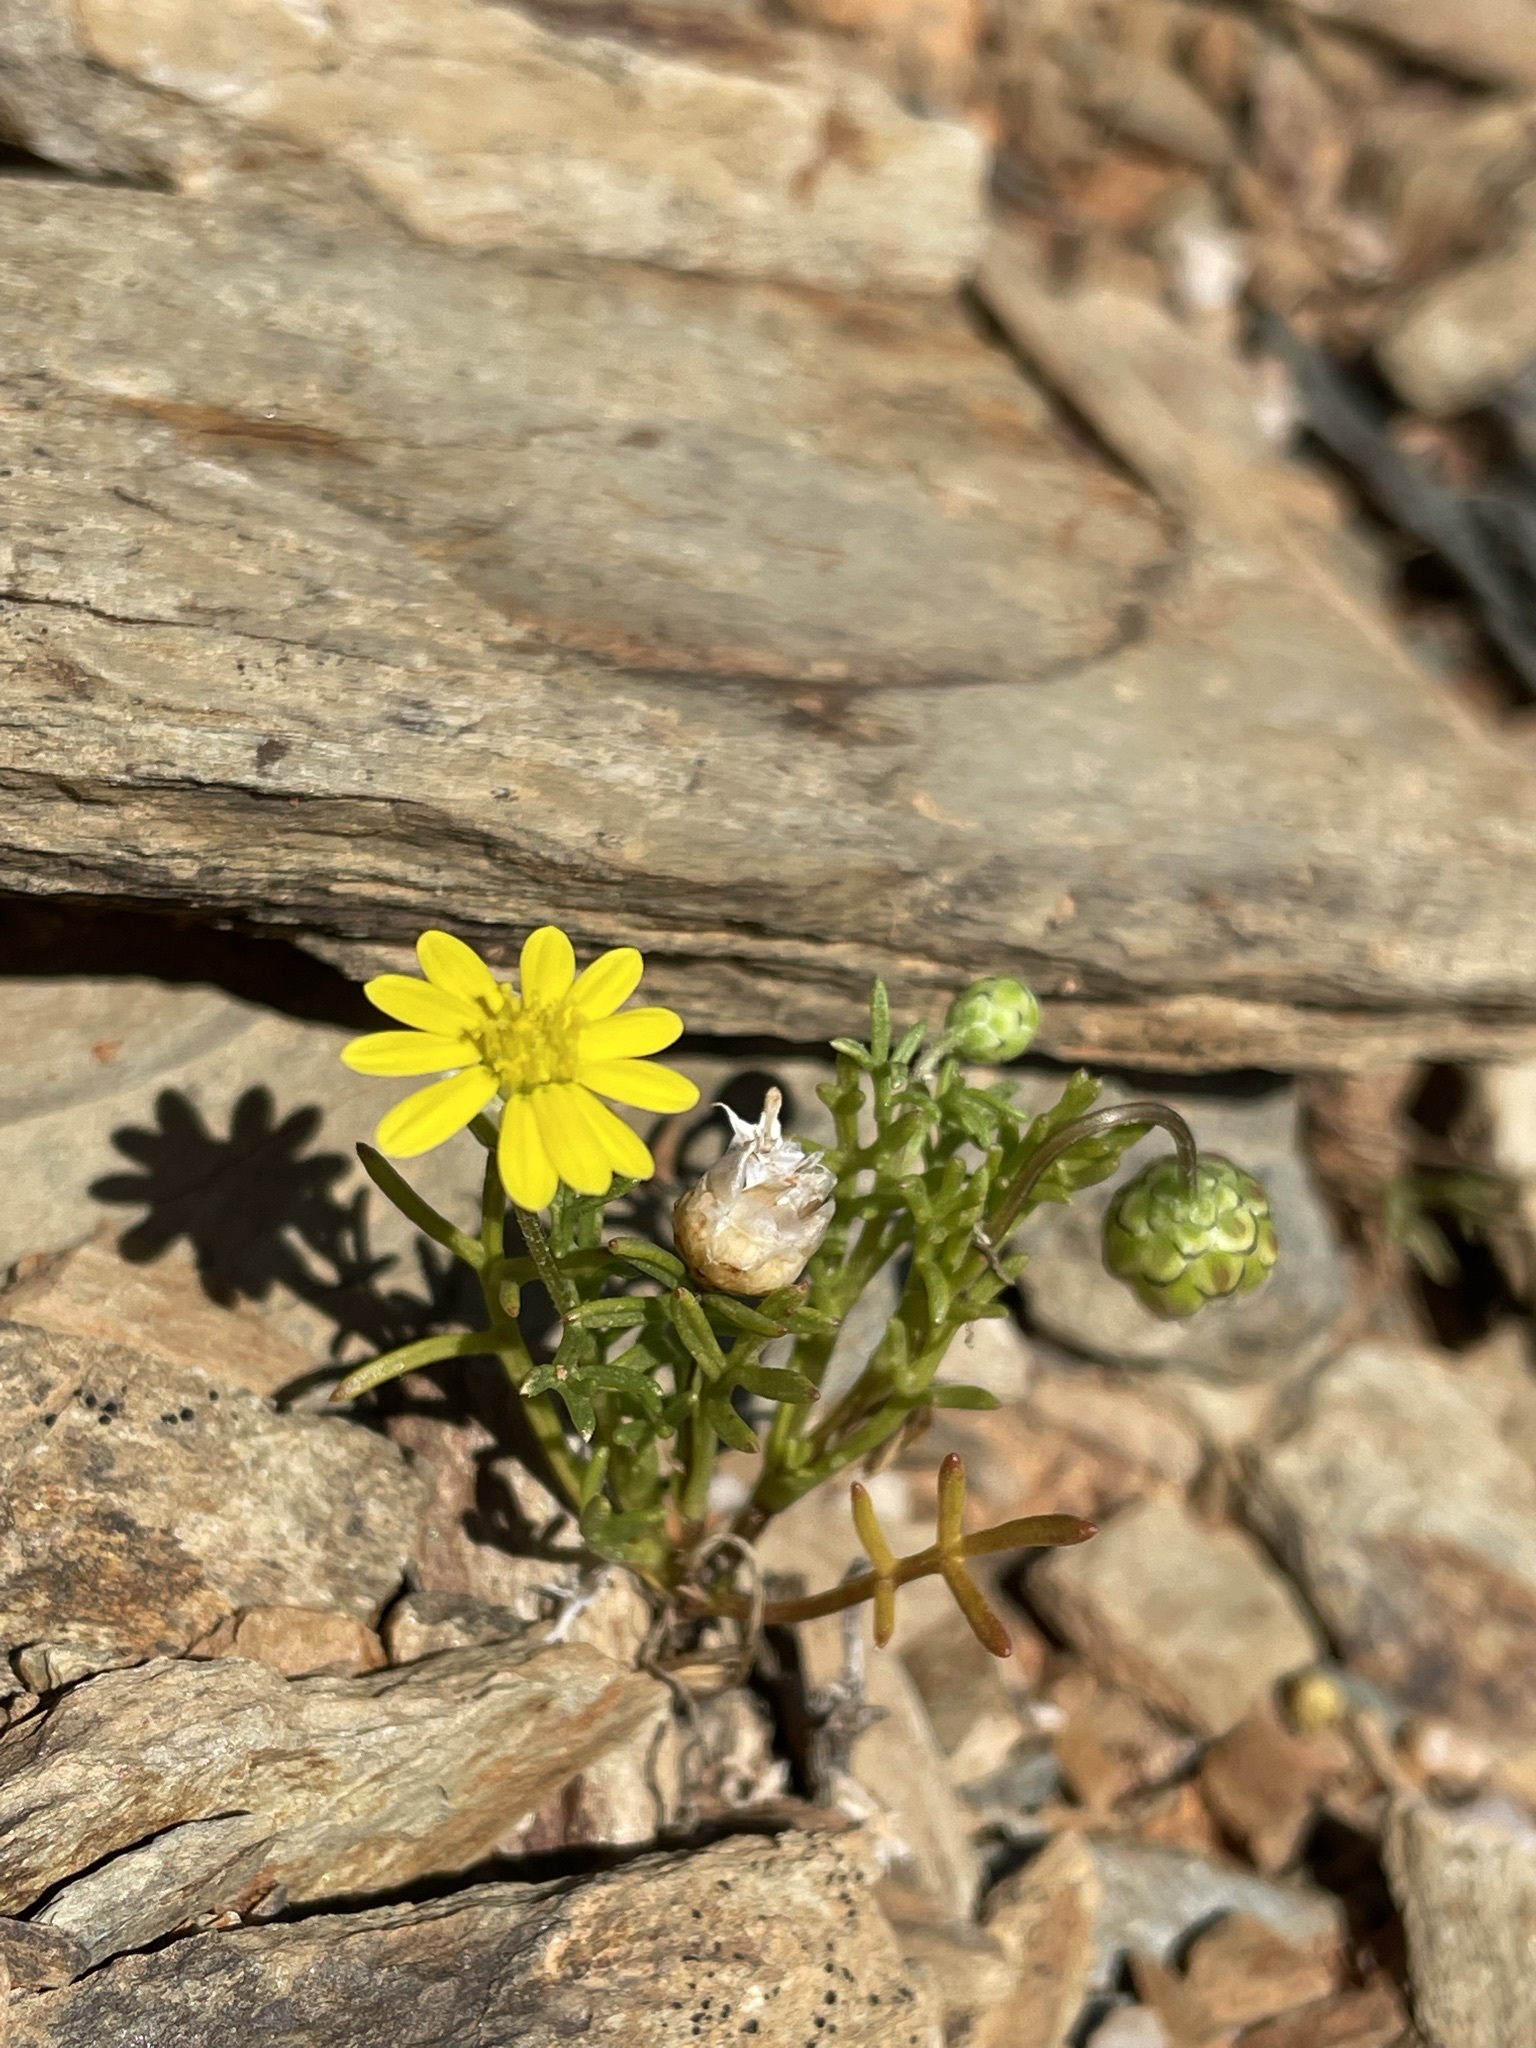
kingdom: Plantae
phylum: Tracheophyta
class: Magnoliopsida
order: Asterales
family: Asteraceae
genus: Ursinia
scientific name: Ursinia nana
